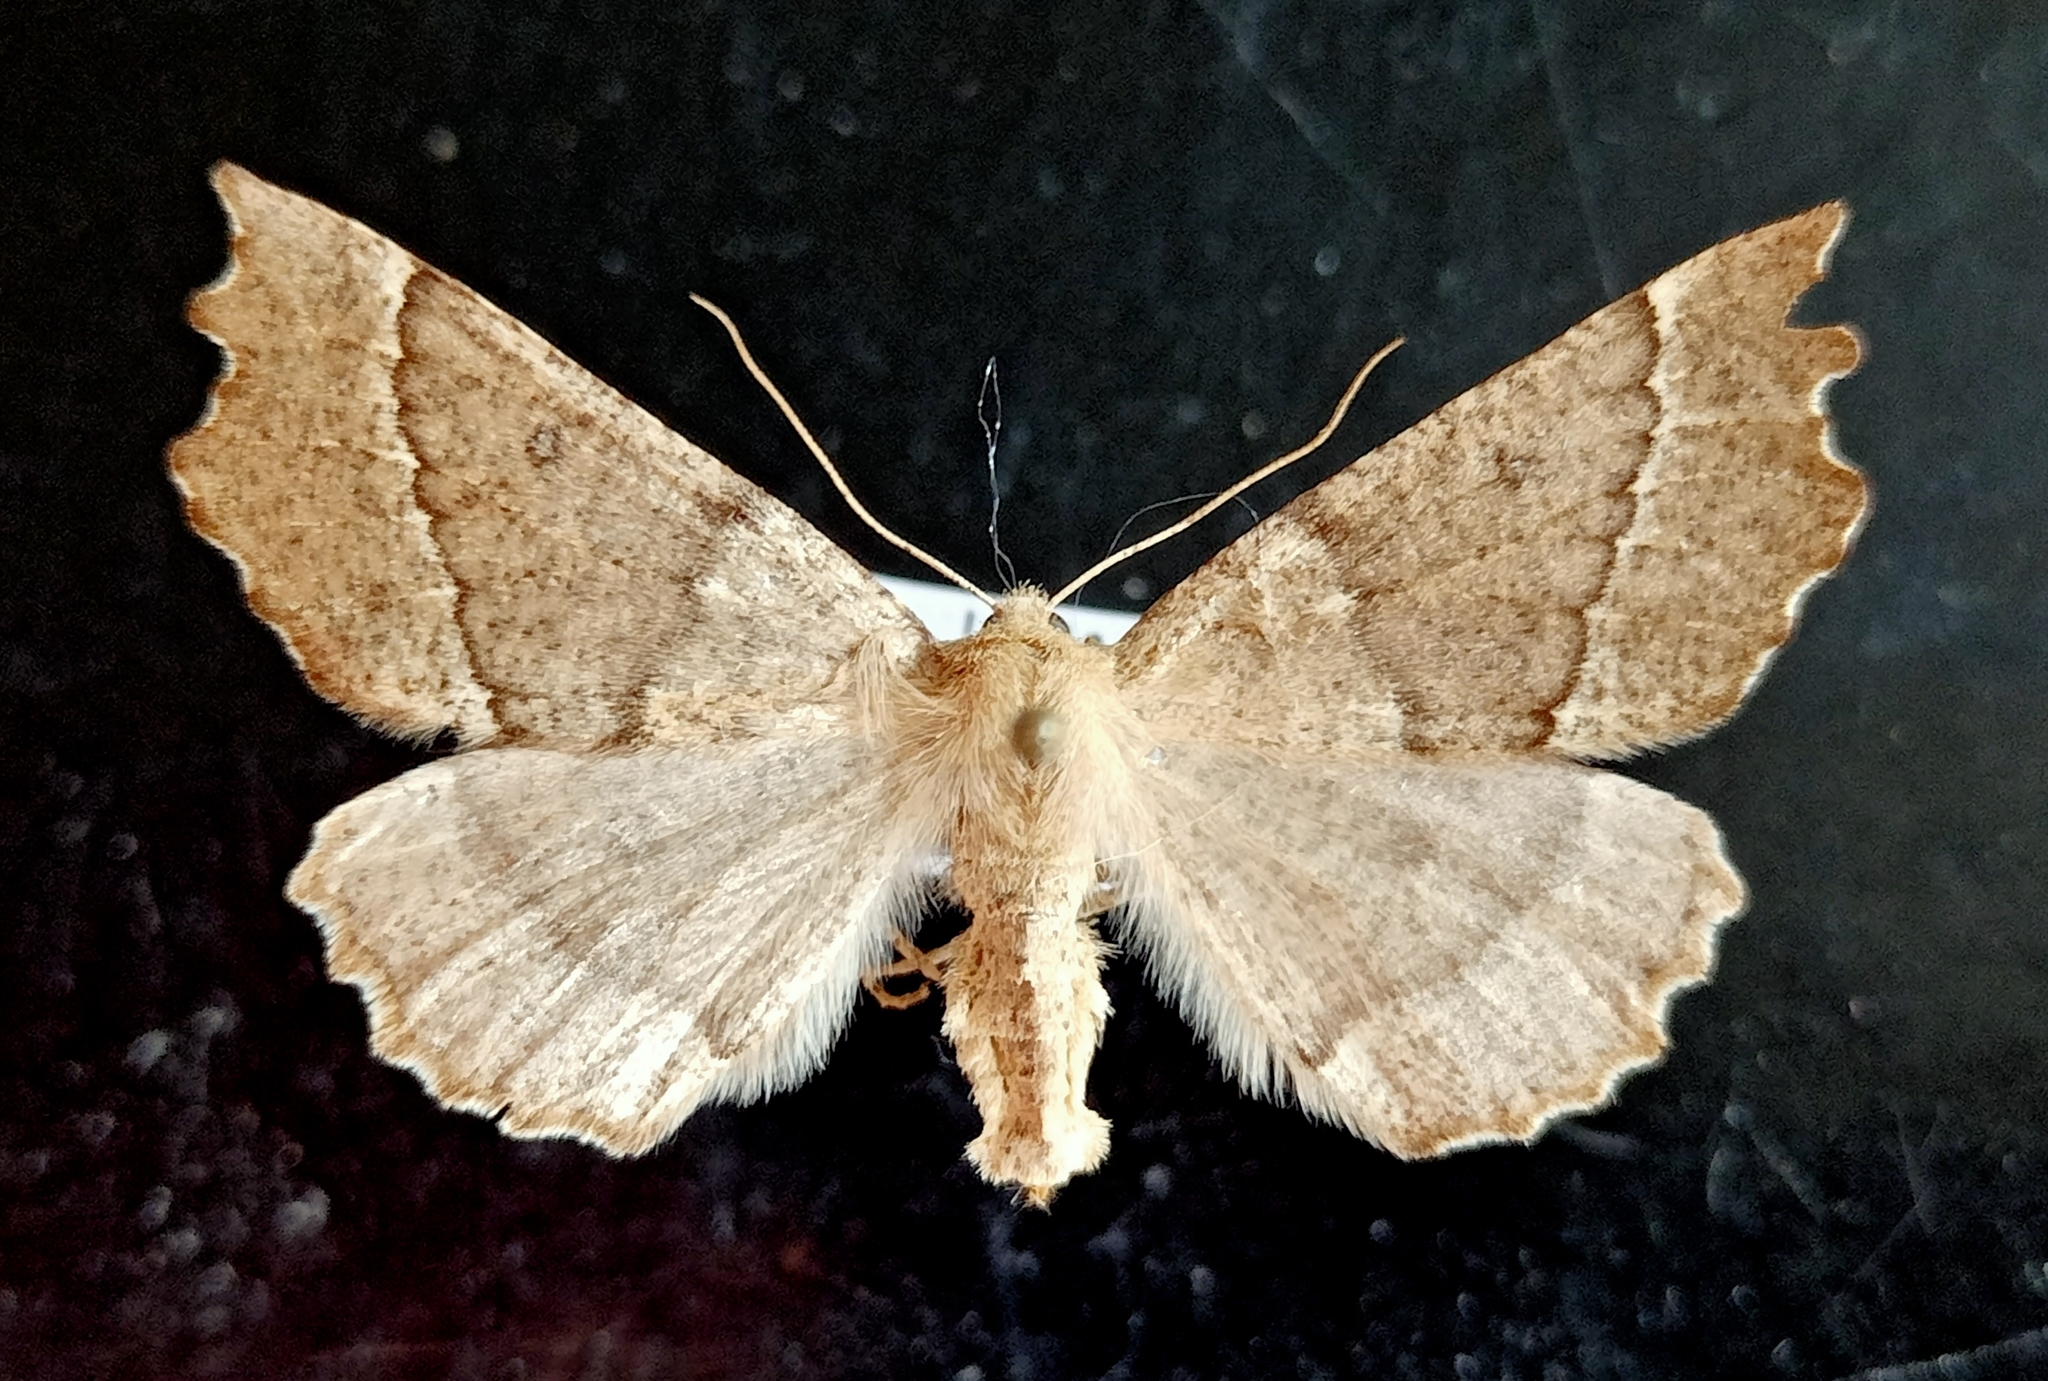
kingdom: Animalia
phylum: Arthropoda
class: Insecta
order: Lepidoptera
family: Geometridae
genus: Odontopera
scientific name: Odontopera bidentata
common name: Scalloped hazel
